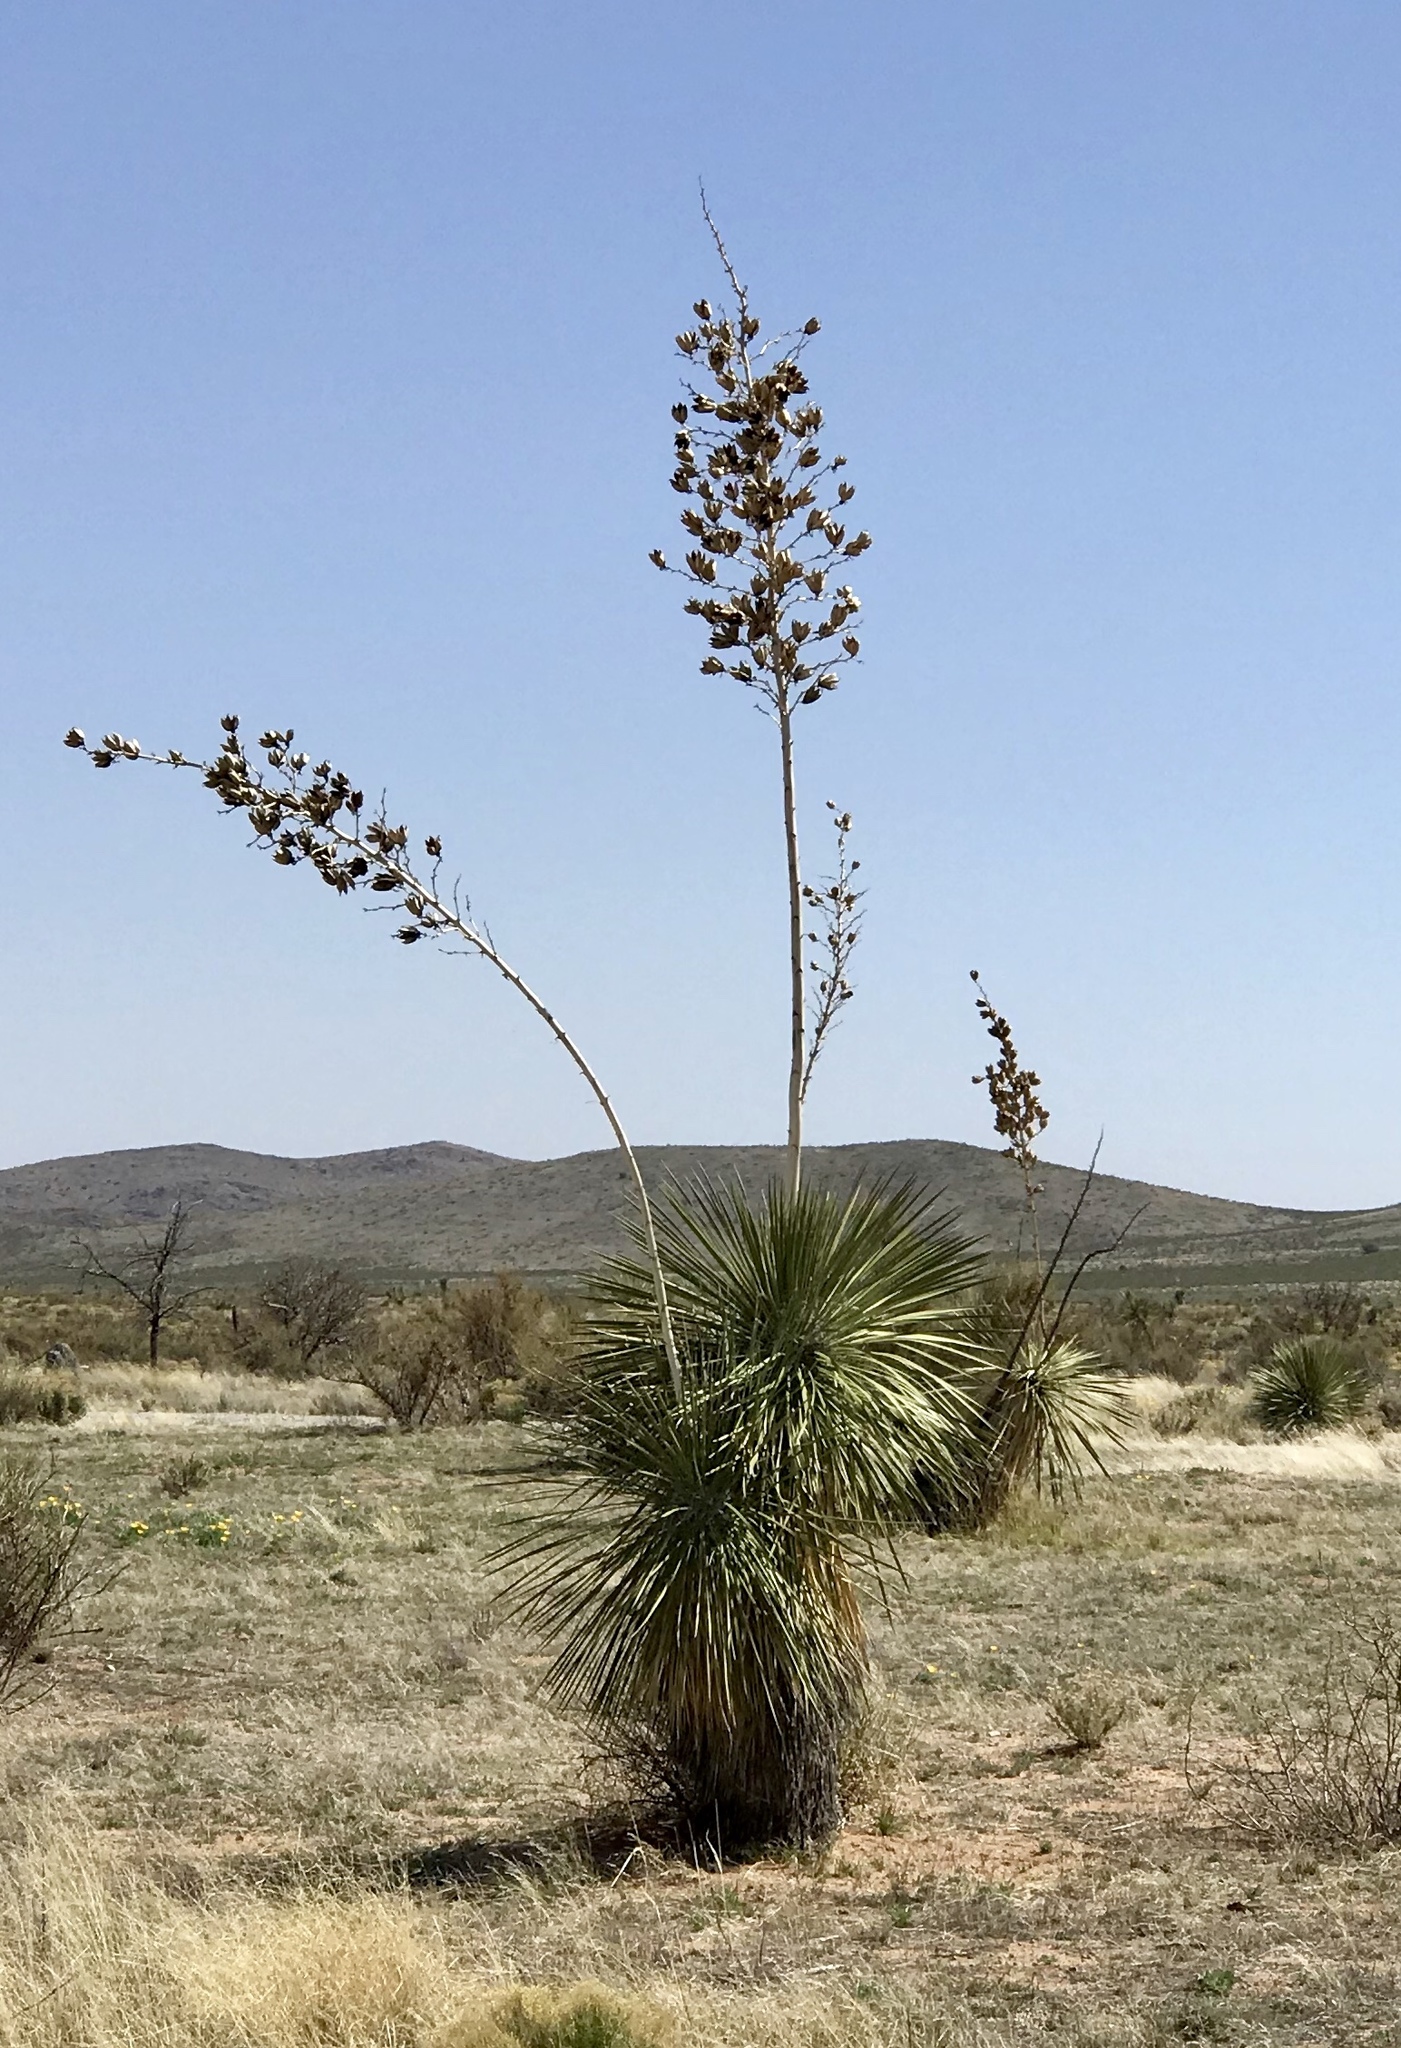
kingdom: Plantae
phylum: Tracheophyta
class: Liliopsida
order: Asparagales
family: Asparagaceae
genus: Yucca
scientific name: Yucca elata
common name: Palmella
